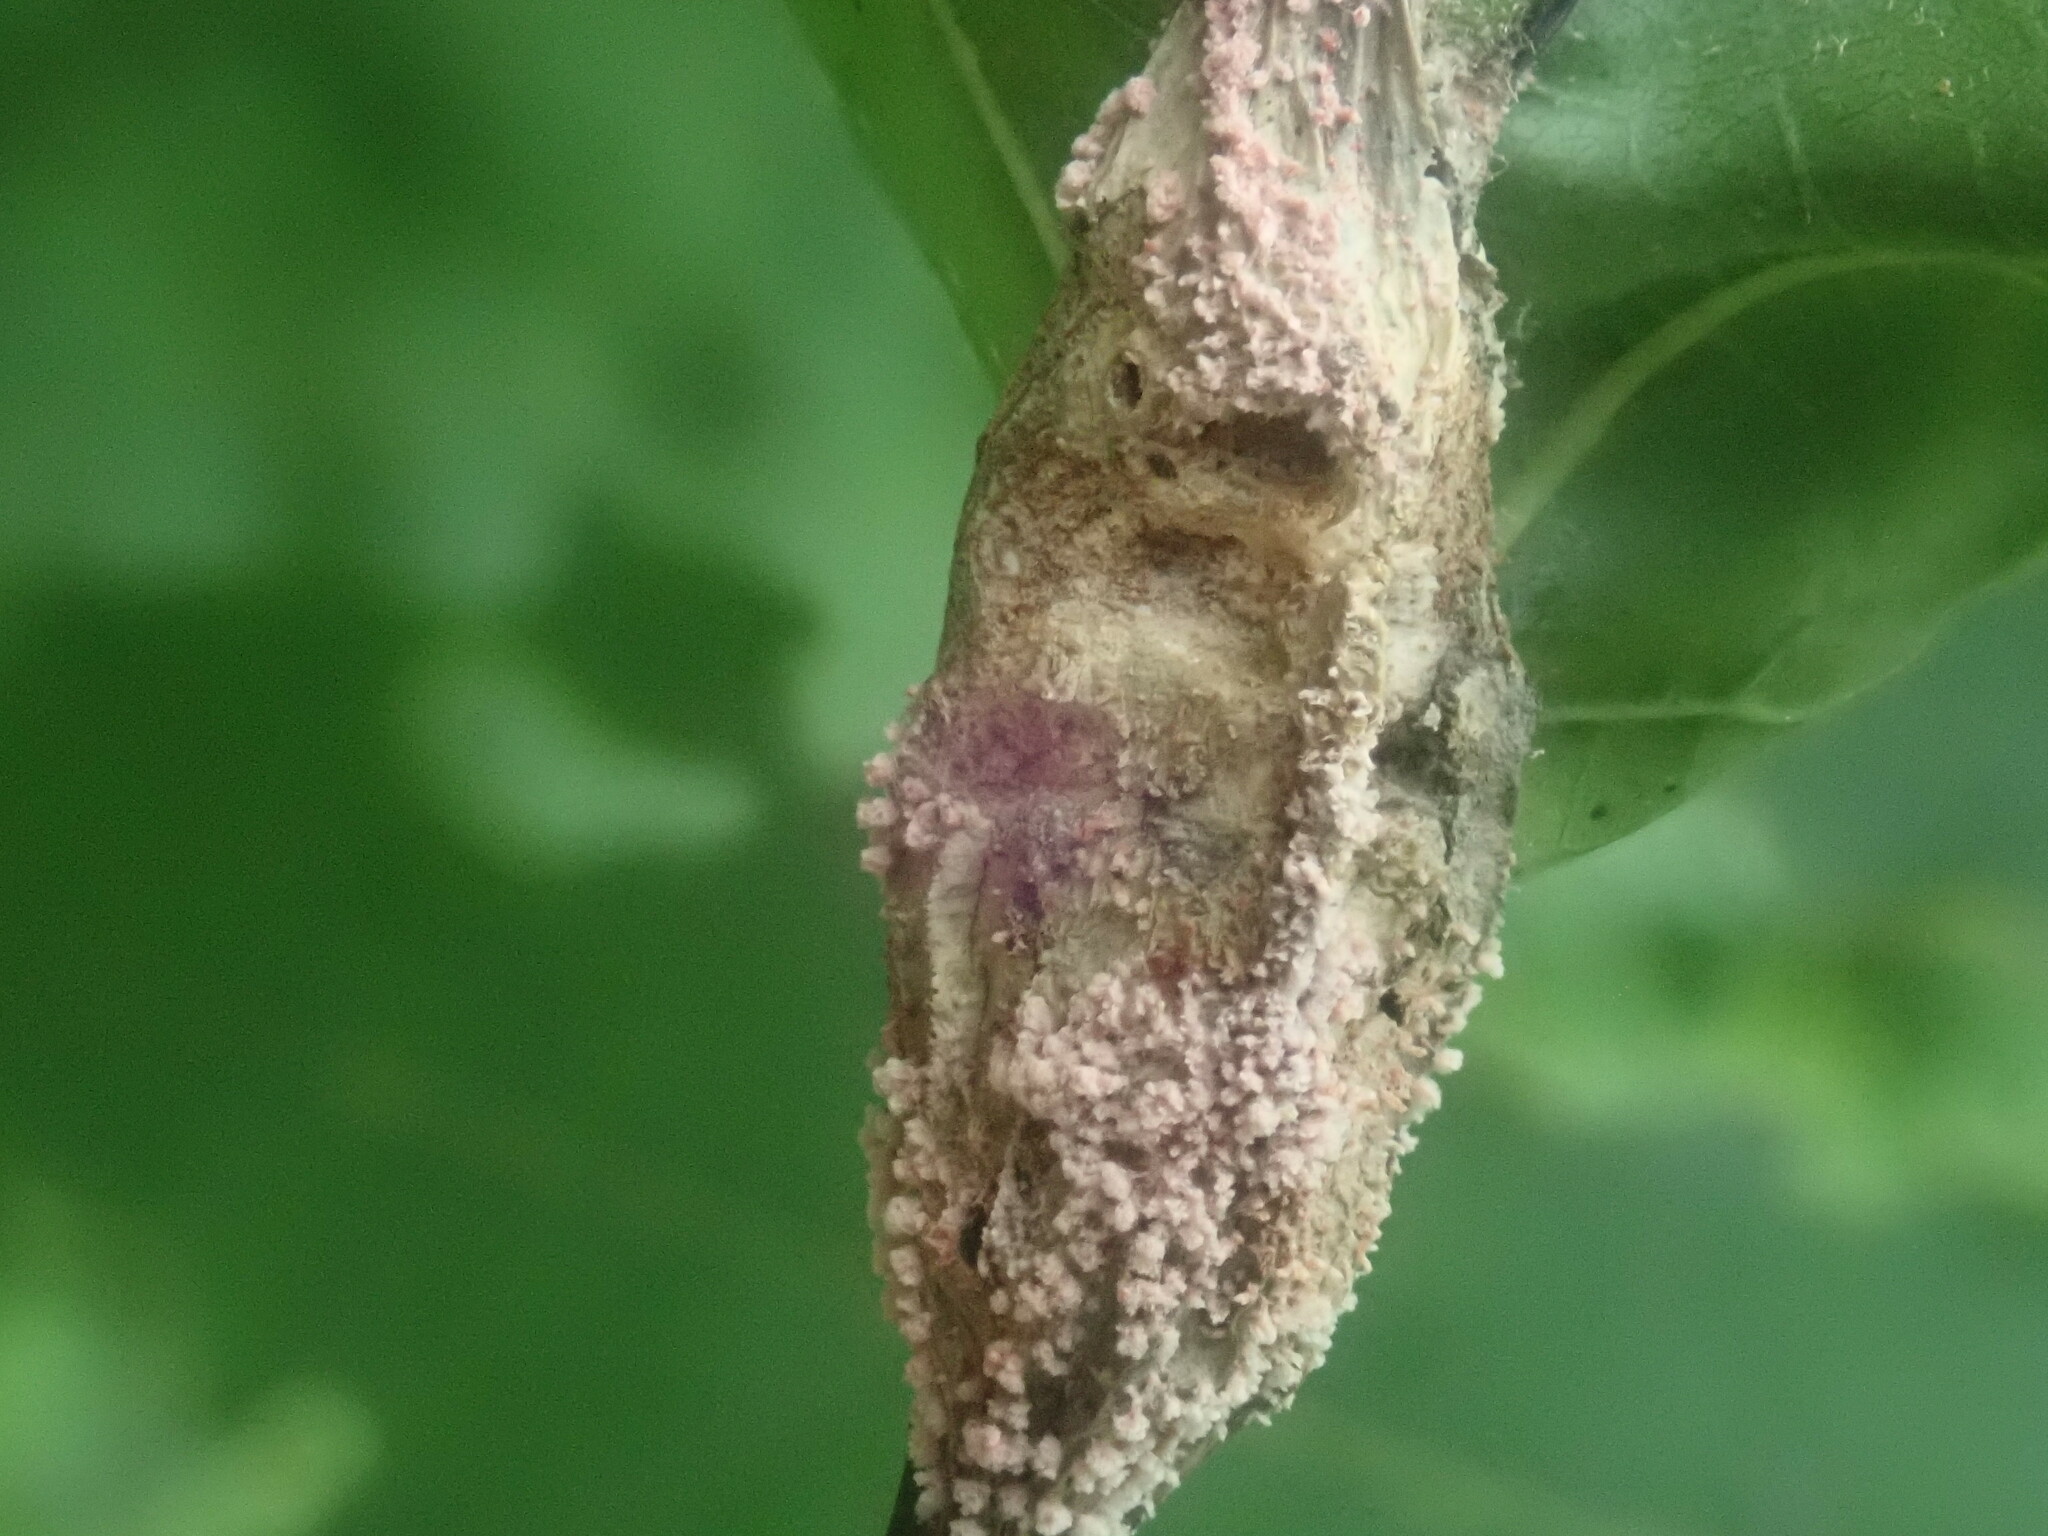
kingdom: Animalia
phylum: Arthropoda
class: Insecta
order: Hymenoptera
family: Cynipidae
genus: Melikaiella
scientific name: Melikaiella tumifica
